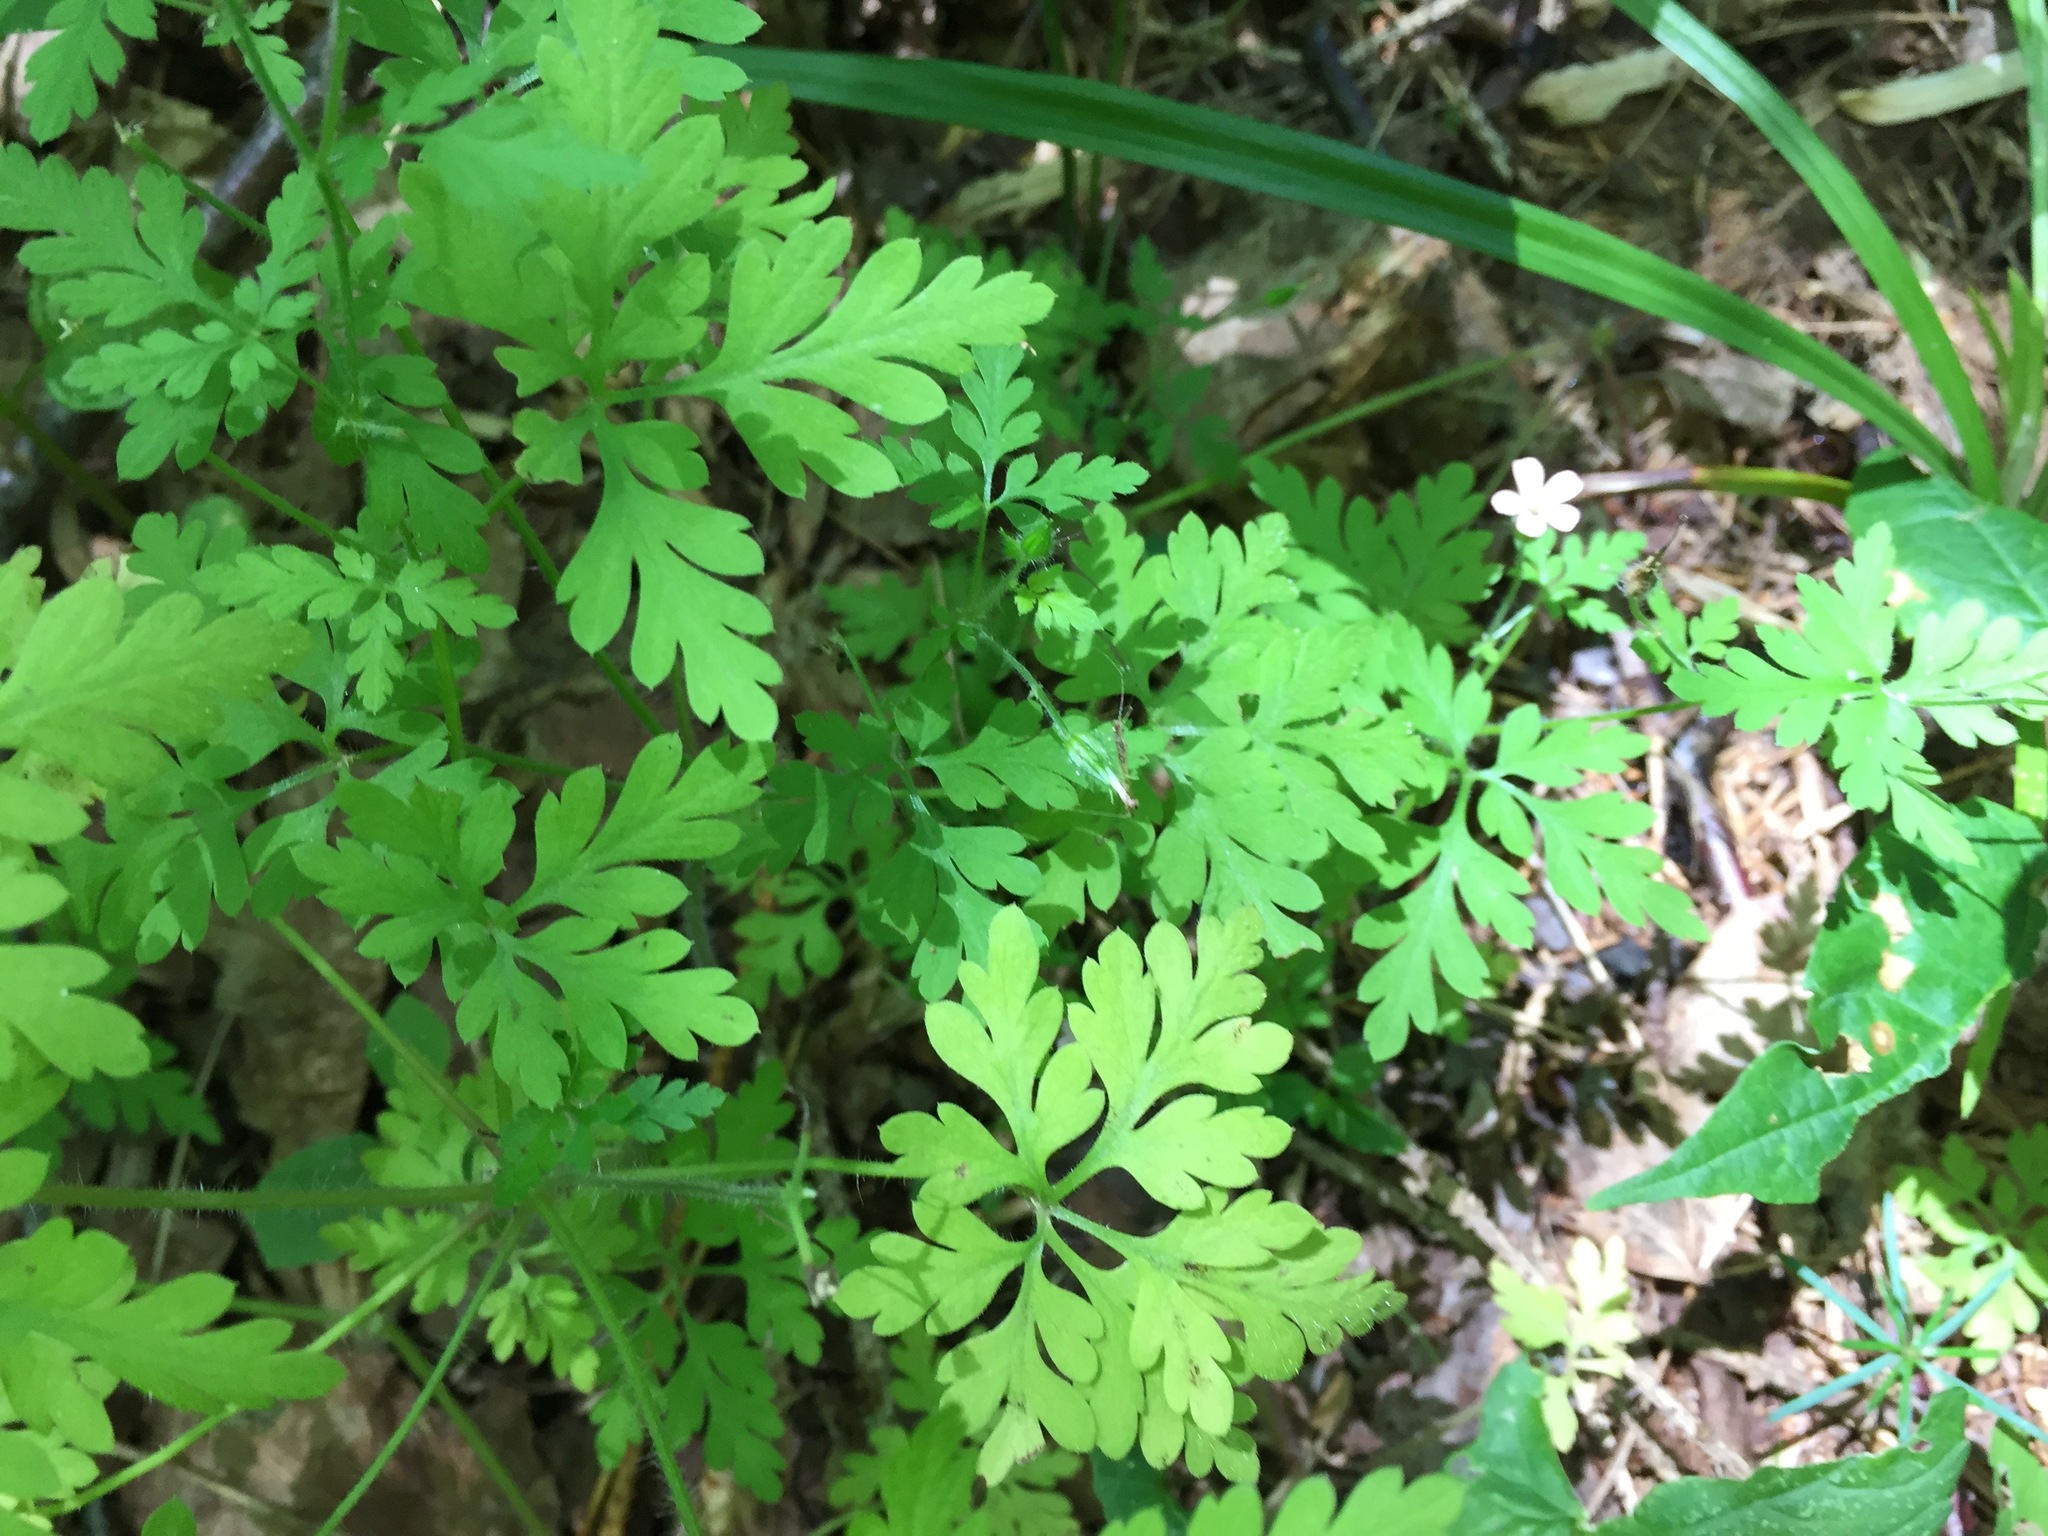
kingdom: Plantae
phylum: Tracheophyta
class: Magnoliopsida
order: Geraniales
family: Geraniaceae
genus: Geranium
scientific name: Geranium robertianum
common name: Herb-robert
